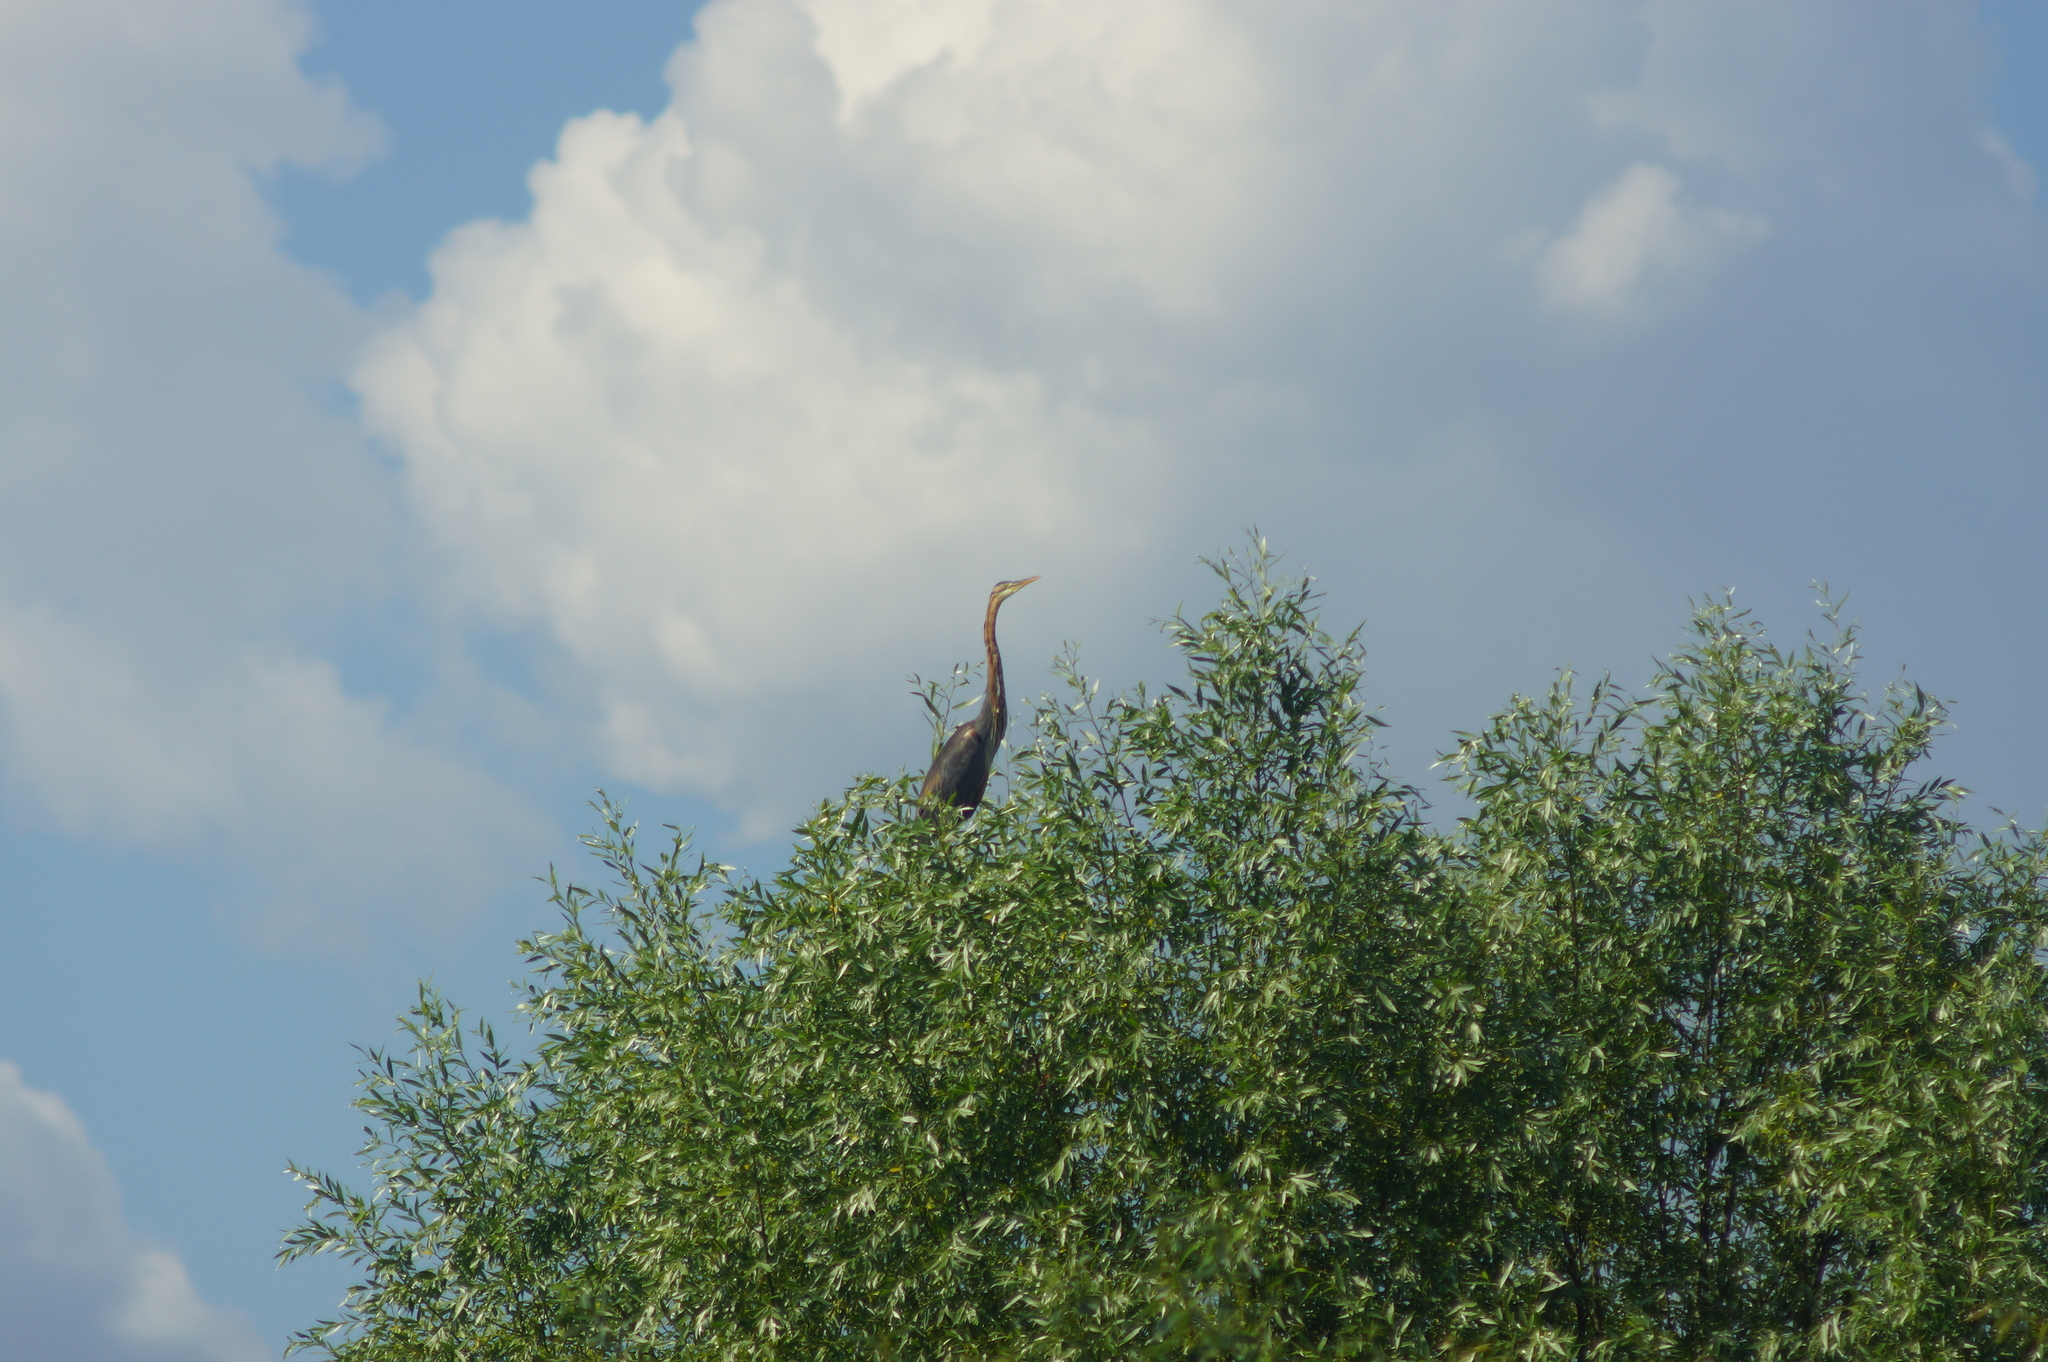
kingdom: Animalia
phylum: Chordata
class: Aves
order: Pelecaniformes
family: Ardeidae
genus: Ardea
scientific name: Ardea purpurea
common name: Purple heron
